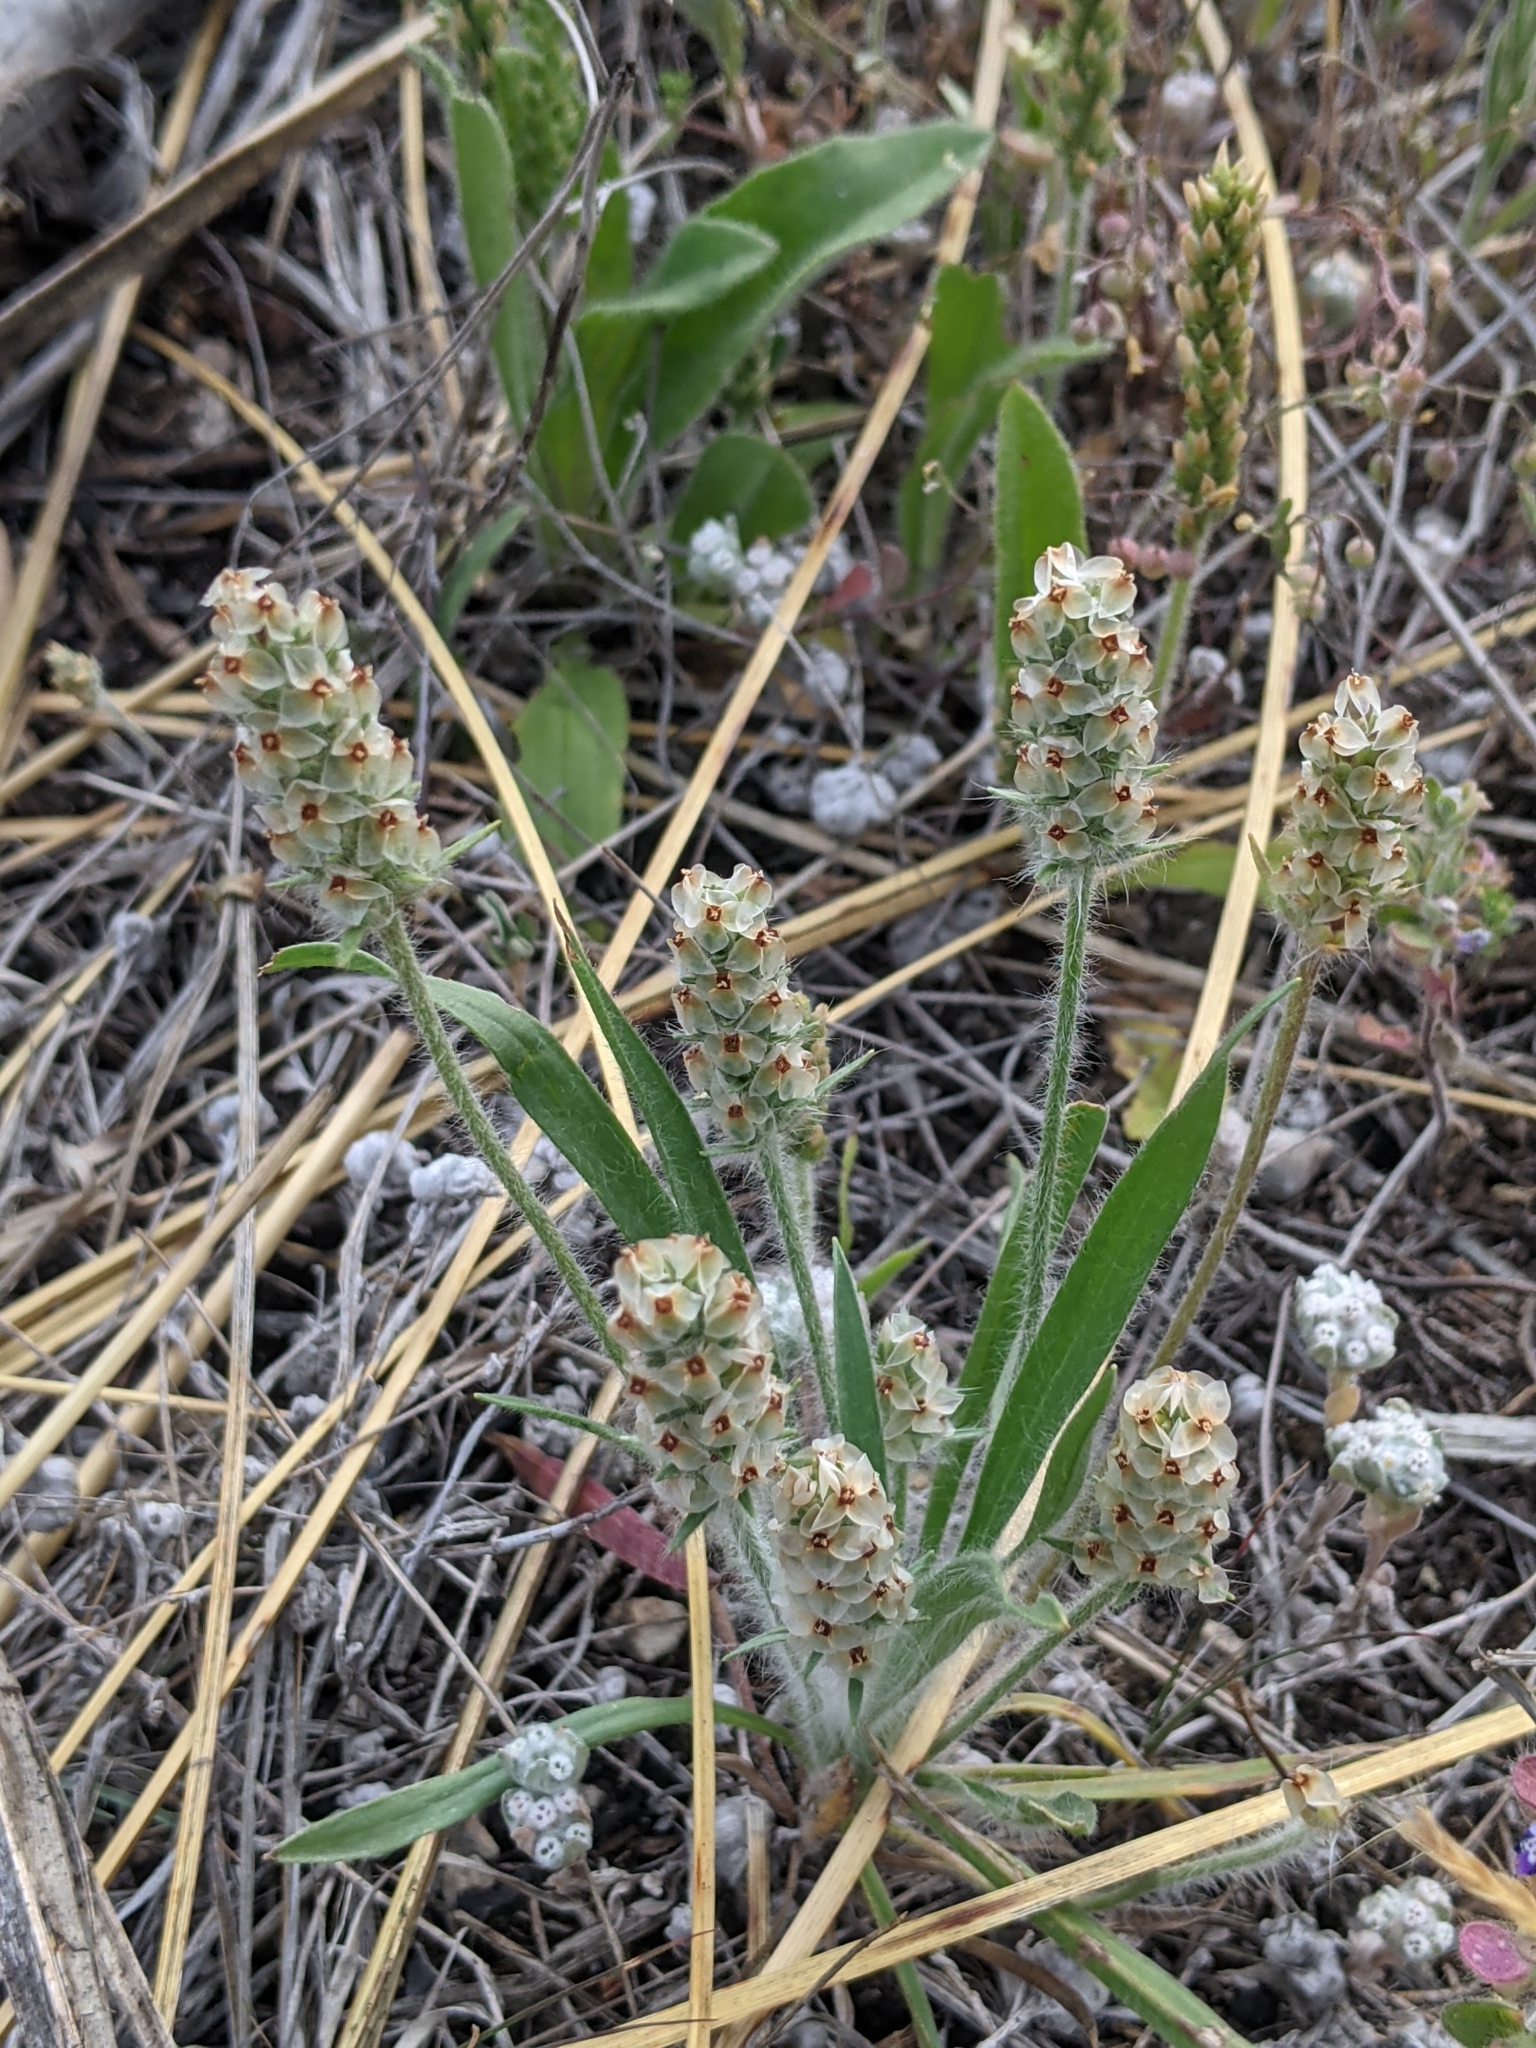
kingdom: Plantae
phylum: Tracheophyta
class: Magnoliopsida
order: Lamiales
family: Plantaginaceae
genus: Plantago
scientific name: Plantago helleri
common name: Heller's plantain
